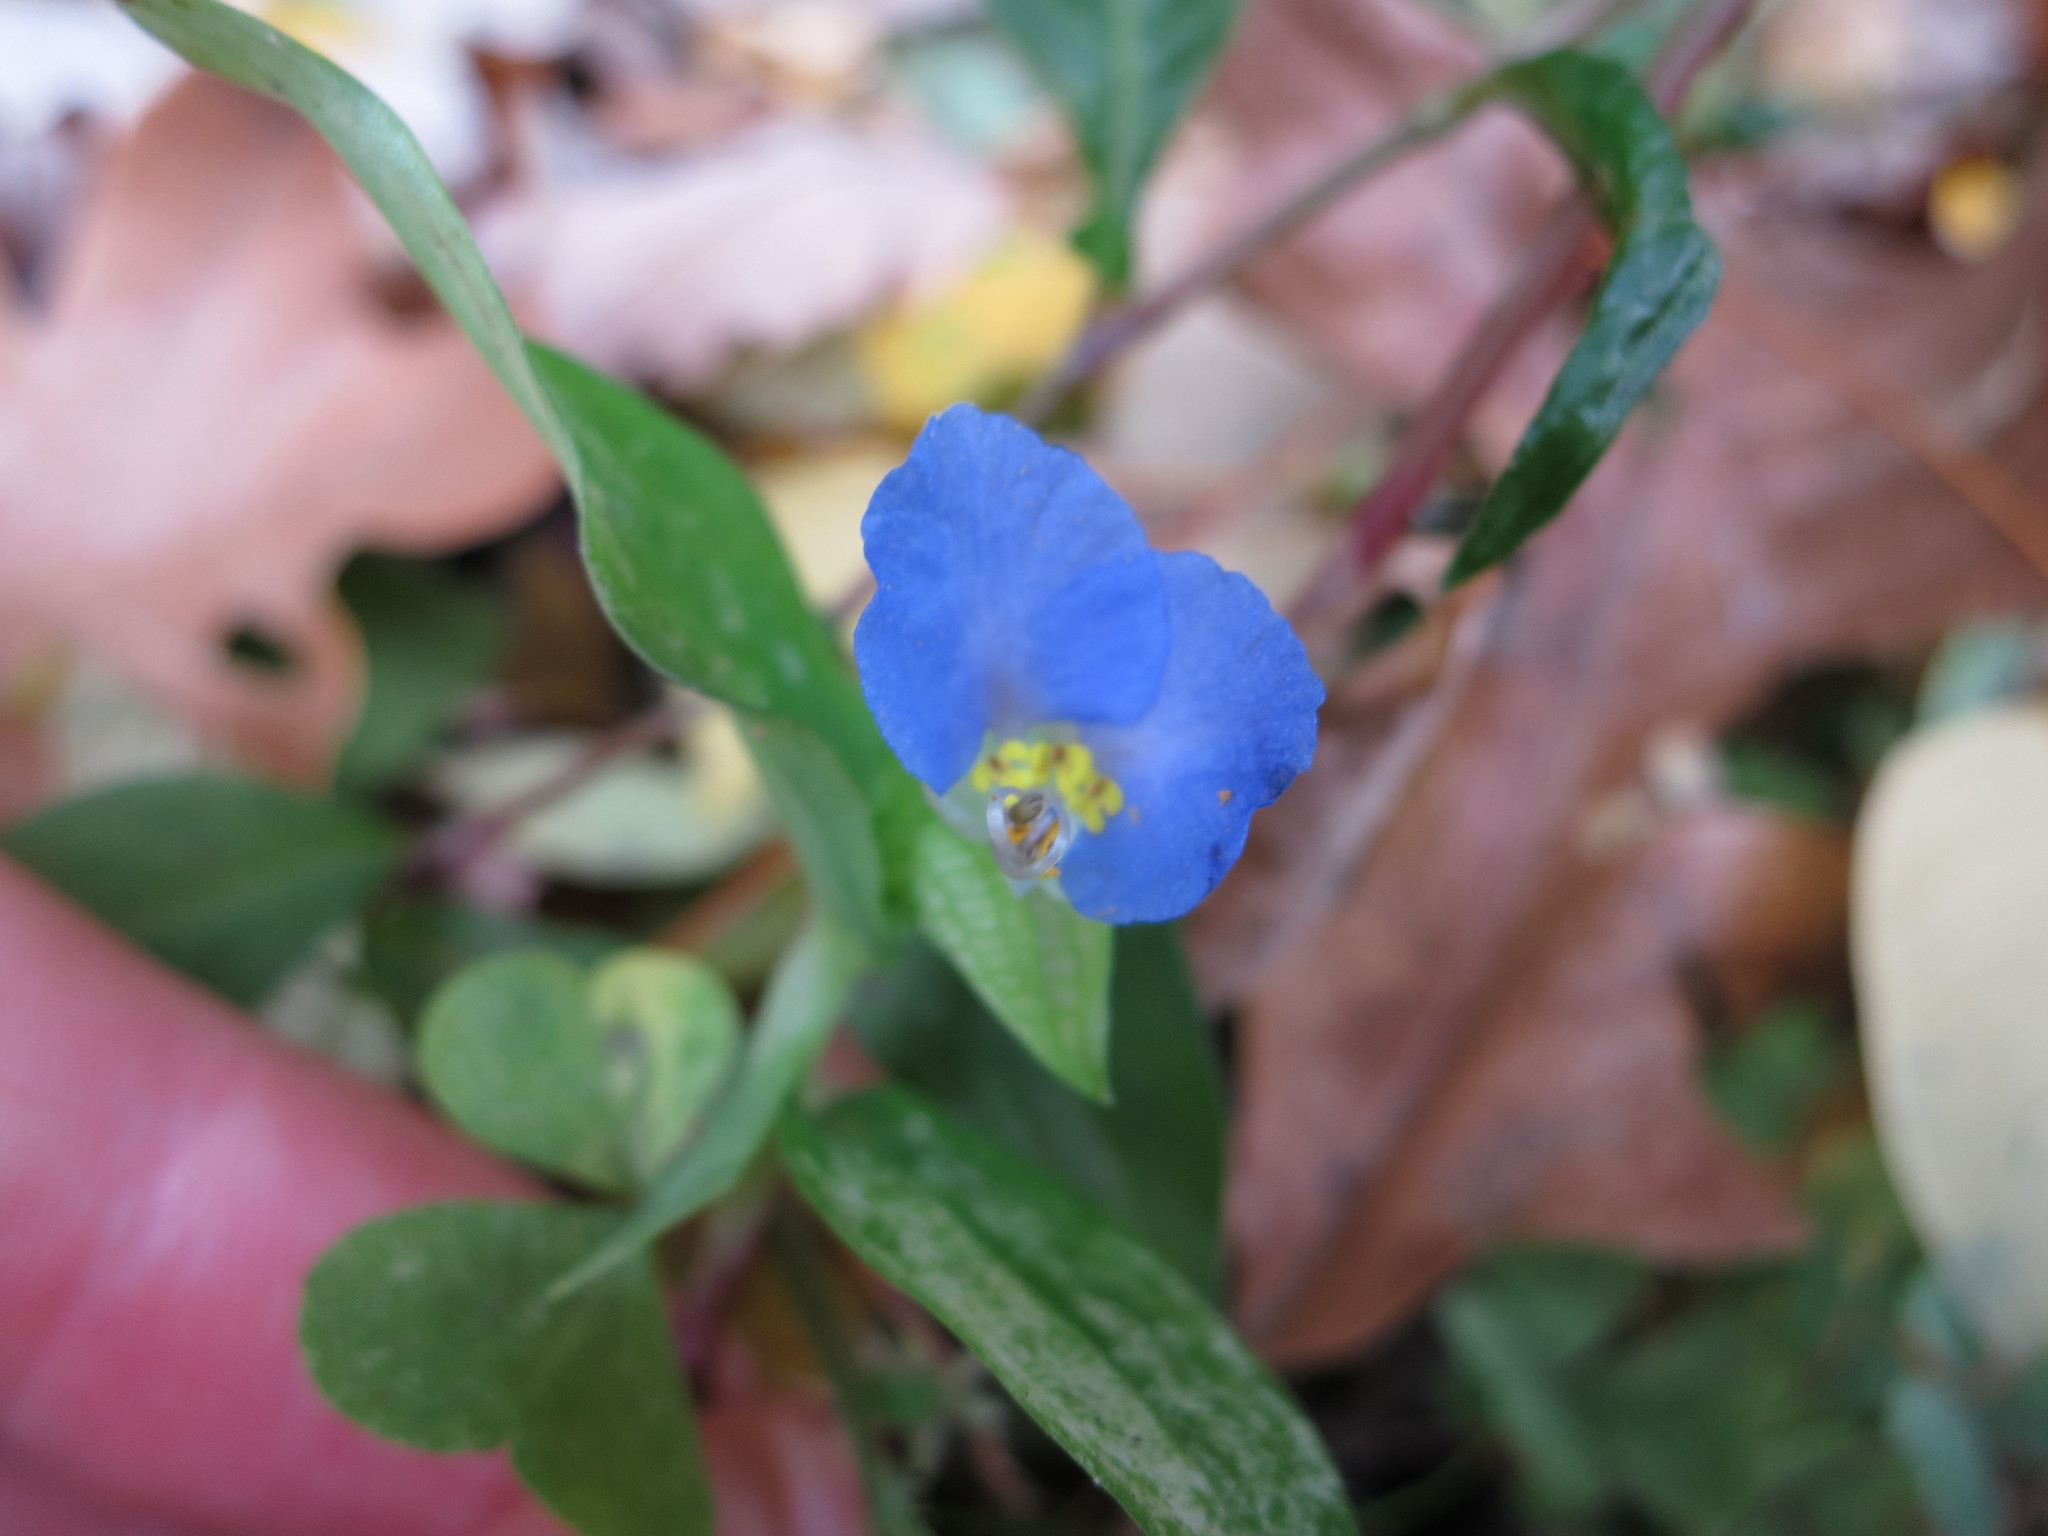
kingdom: Plantae
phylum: Tracheophyta
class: Liliopsida
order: Commelinales
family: Commelinaceae
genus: Commelina
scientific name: Commelina communis
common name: Asiatic dayflower
